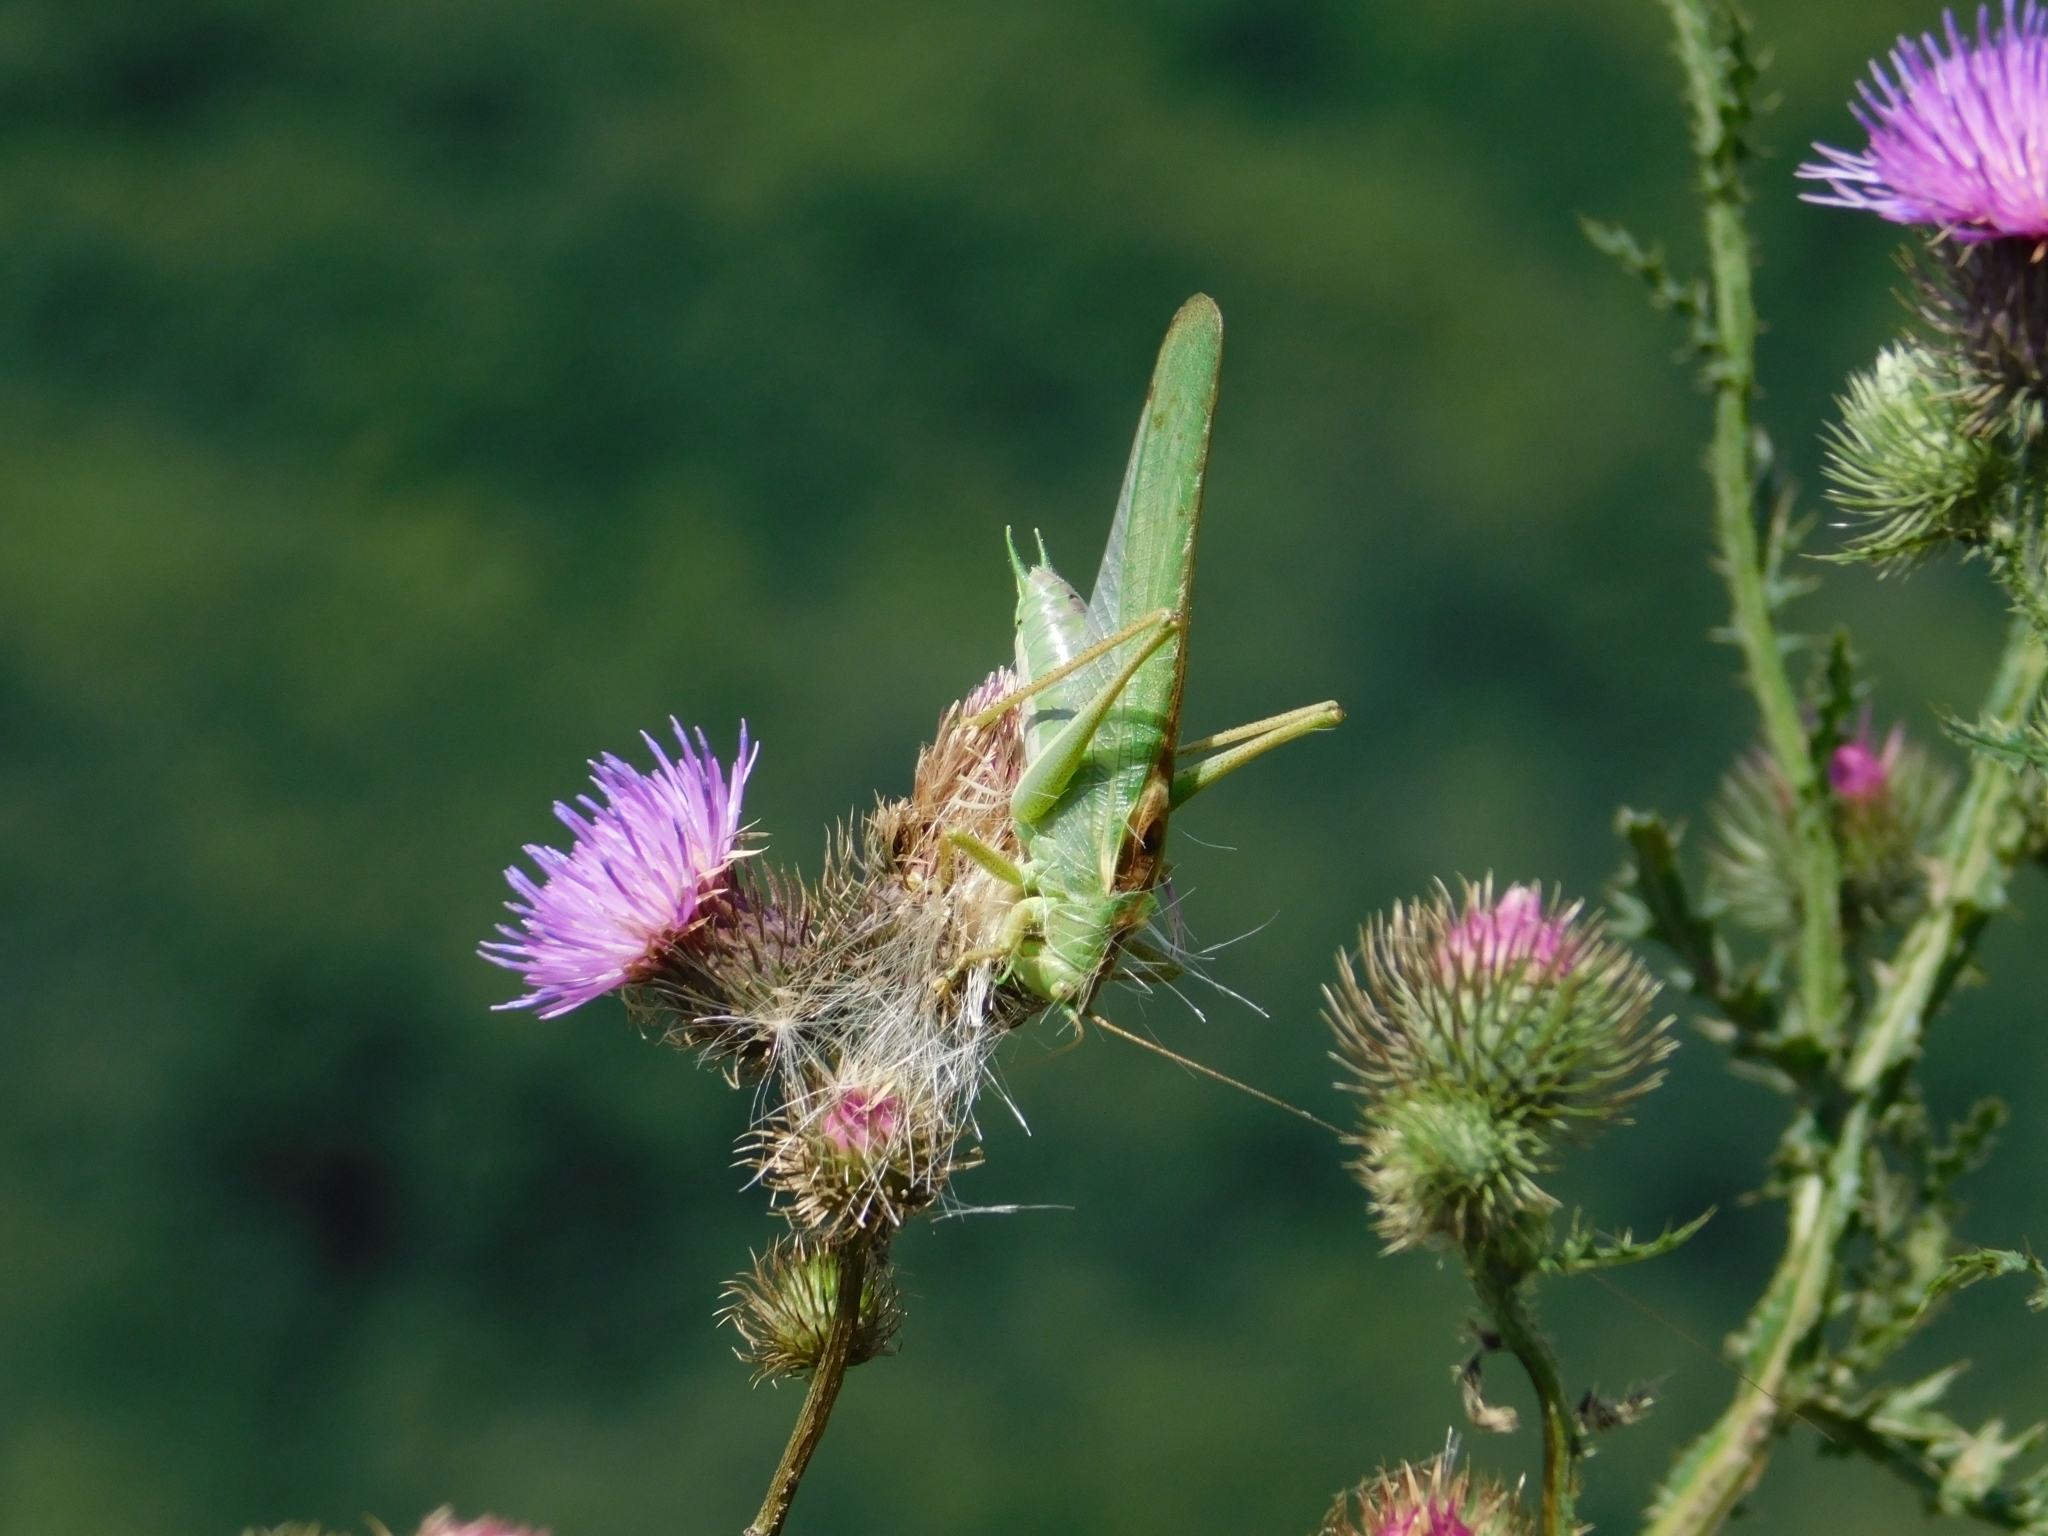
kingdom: Animalia
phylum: Arthropoda
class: Insecta
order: Orthoptera
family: Tettigoniidae
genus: Tettigonia
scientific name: Tettigonia viridissima
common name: Great green bush-cricket
